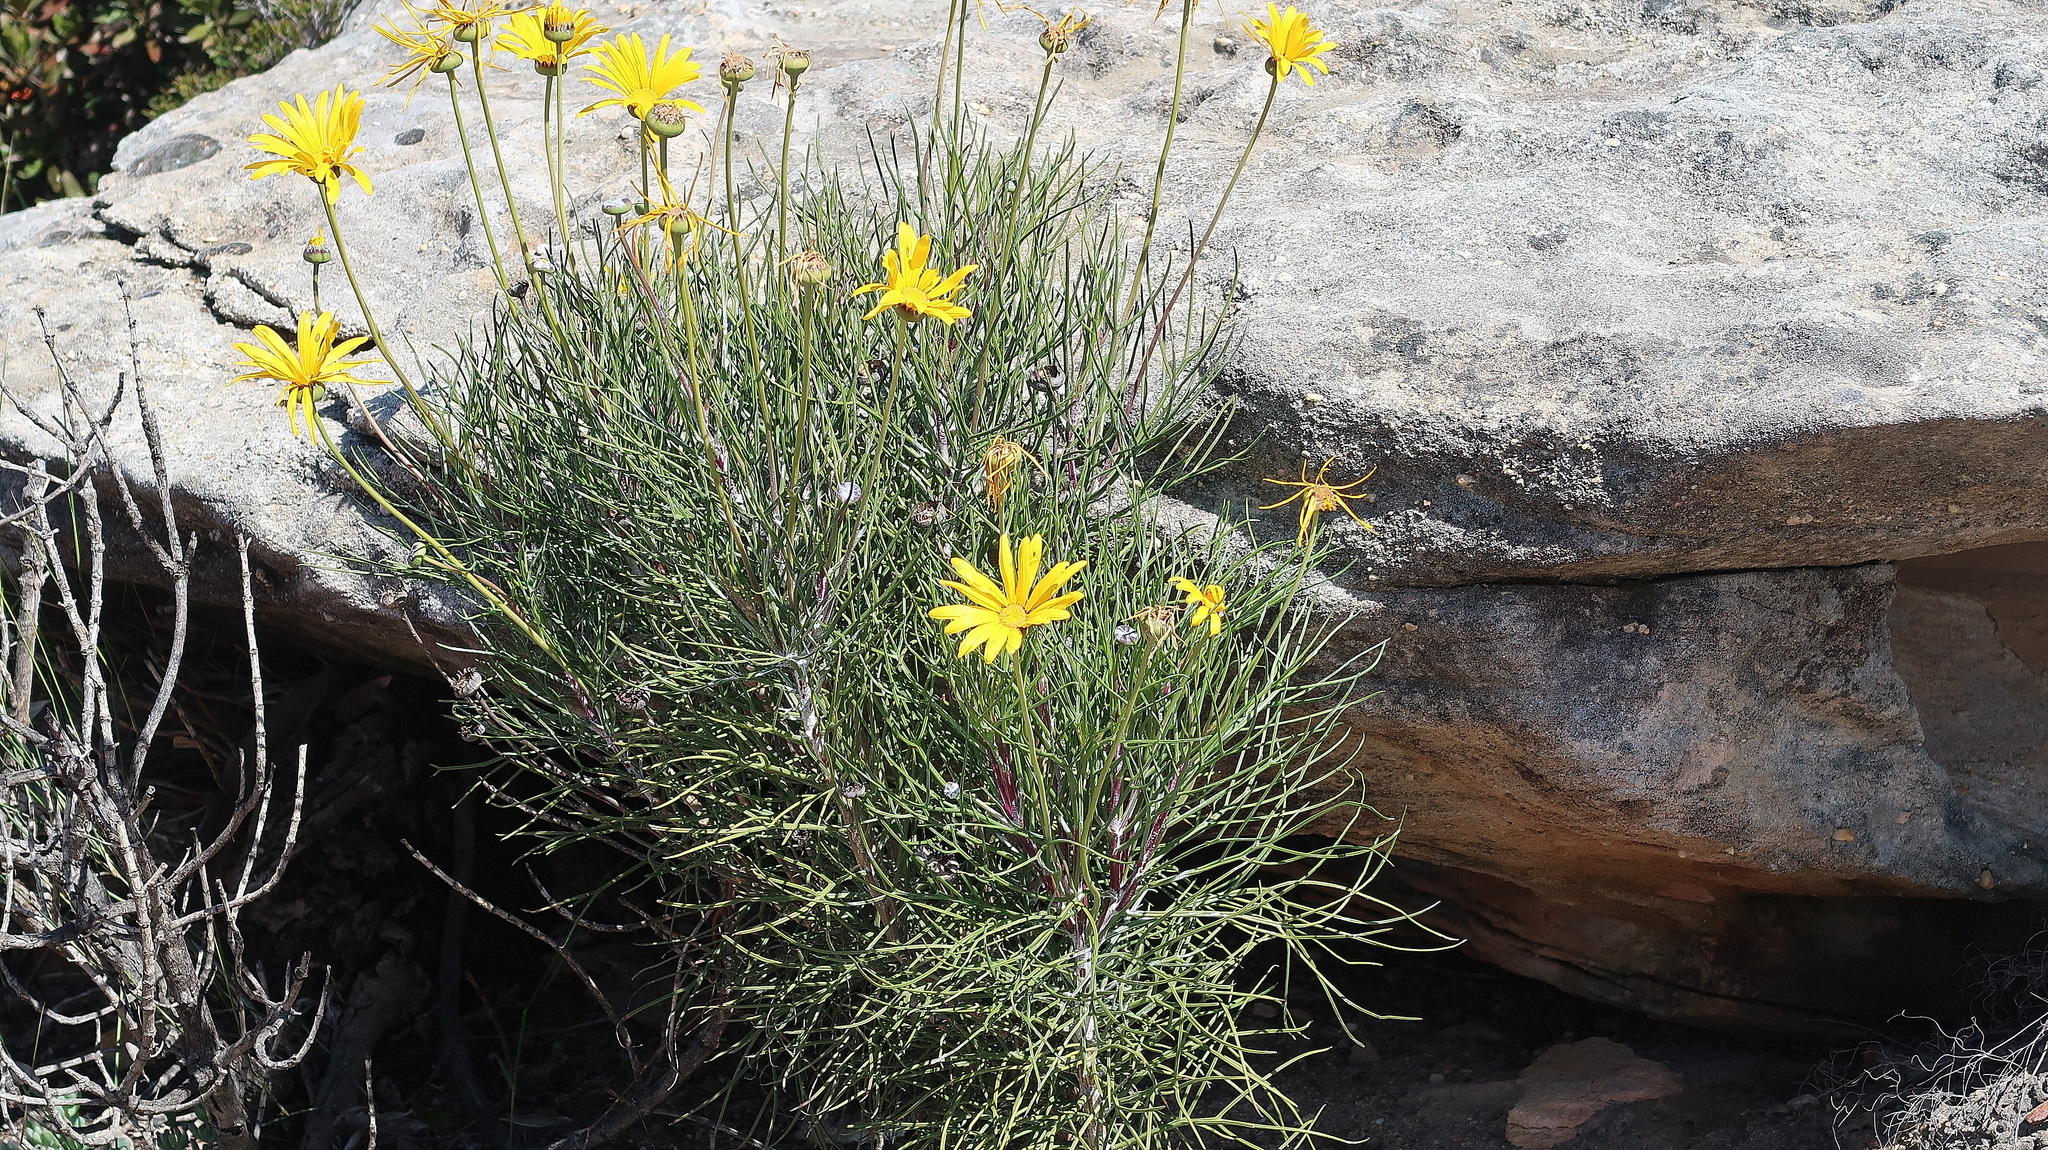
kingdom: Plantae
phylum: Tracheophyta
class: Magnoliopsida
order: Asterales
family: Asteraceae
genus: Euryops
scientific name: Euryops speciosissimus
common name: Clanwilliam daisy
